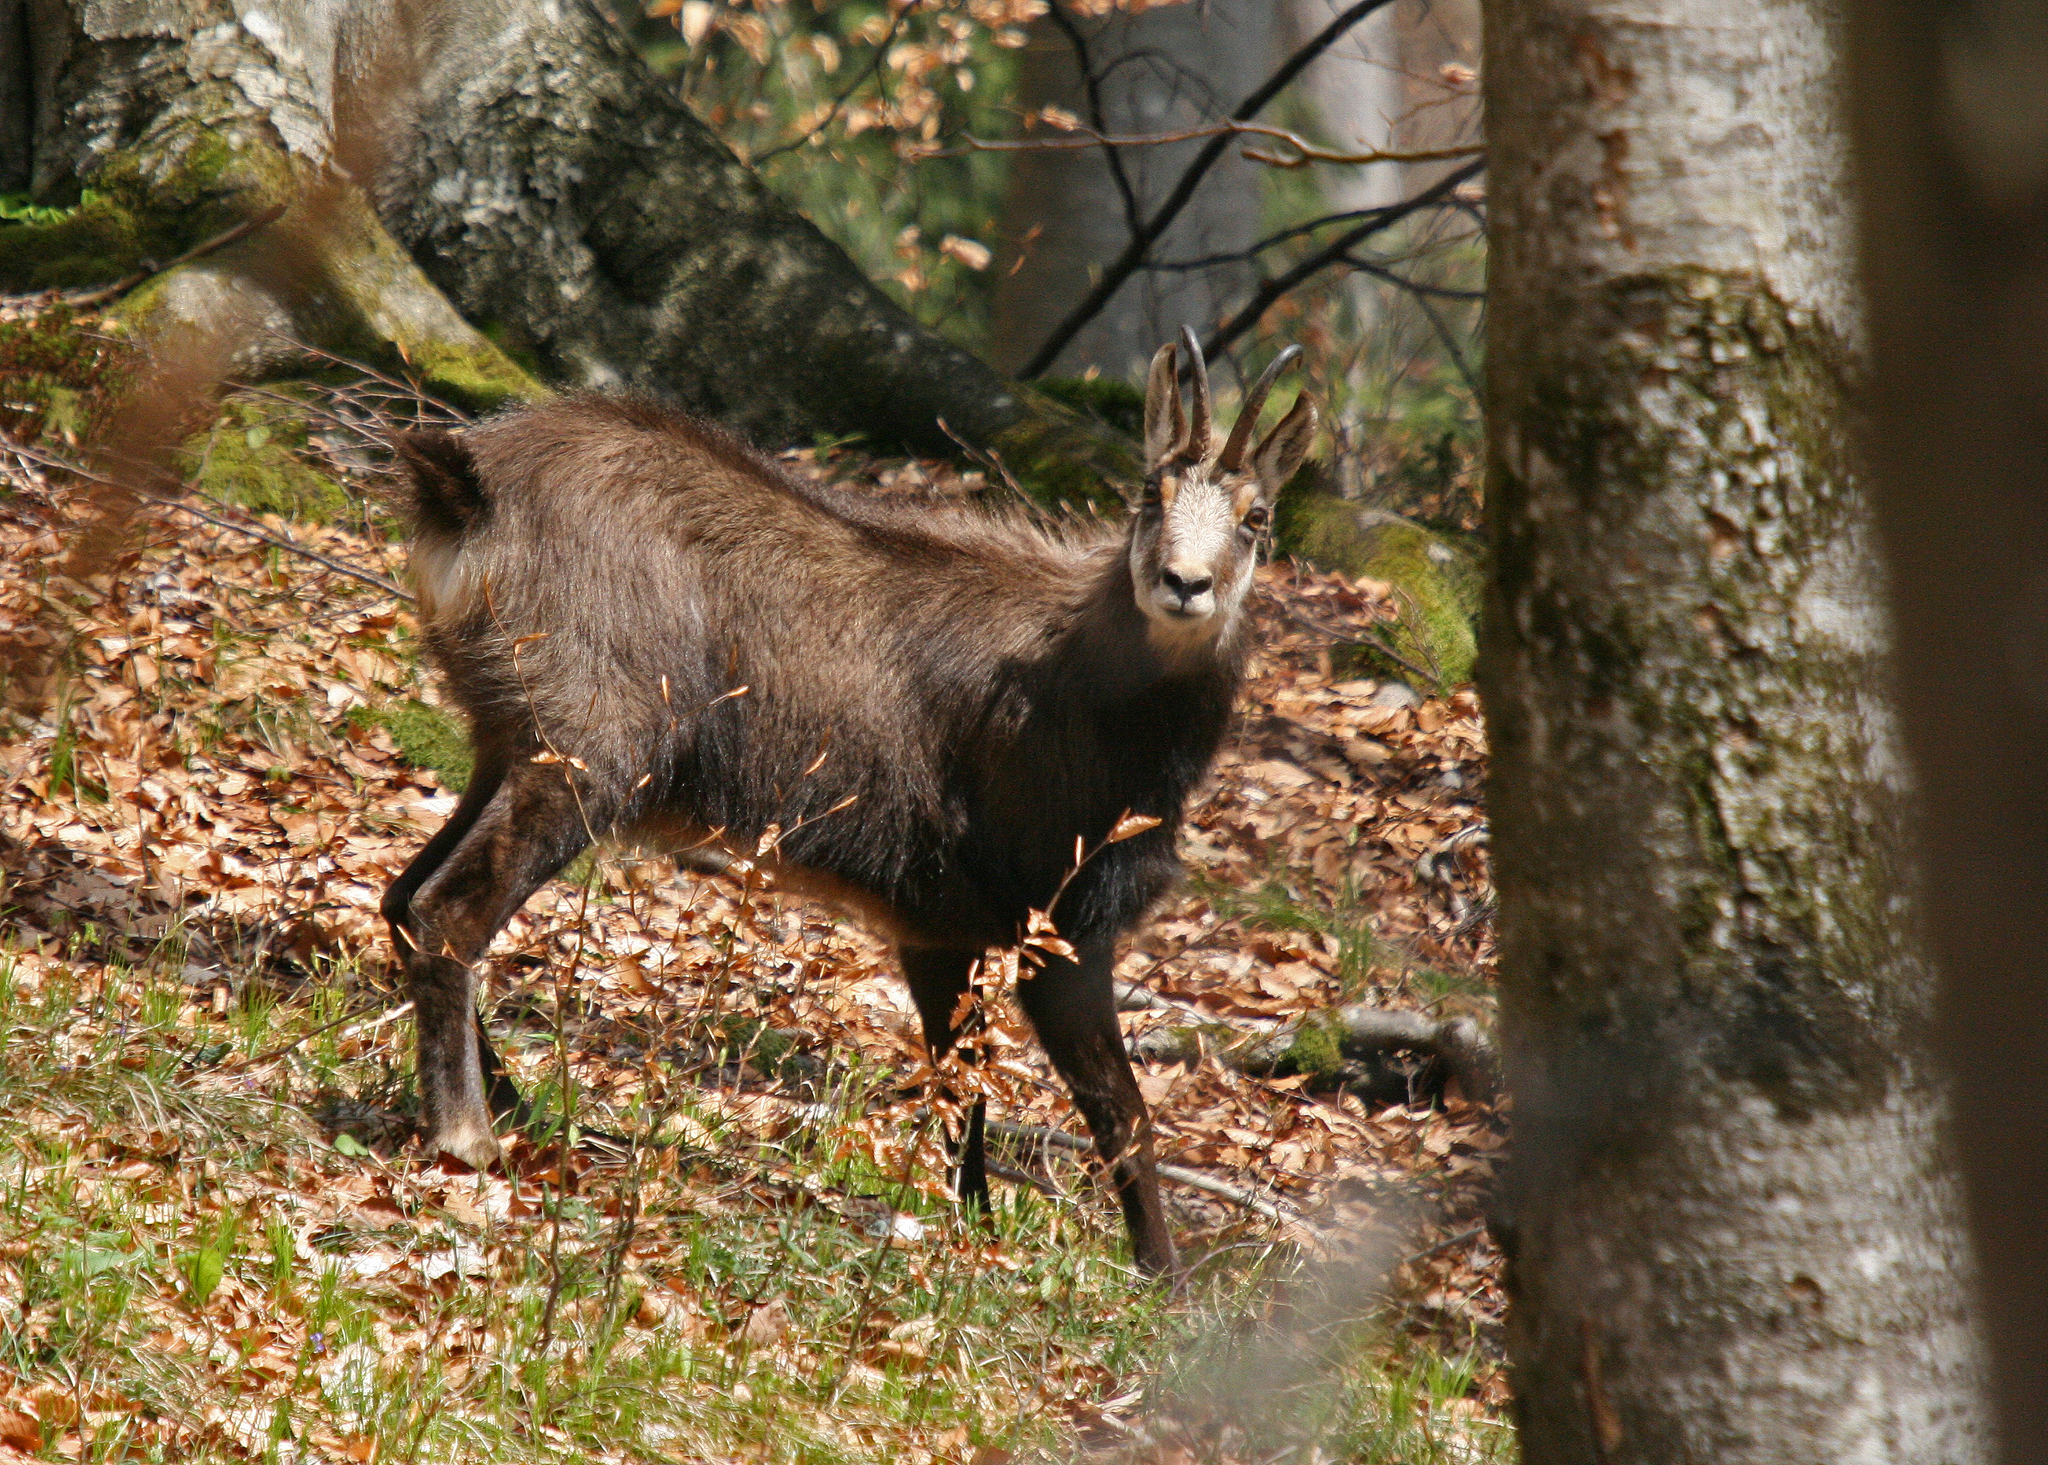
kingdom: Animalia
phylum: Chordata
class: Mammalia
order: Artiodactyla
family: Bovidae
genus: Rupicapra
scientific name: Rupicapra rupicapra
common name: Chamois
